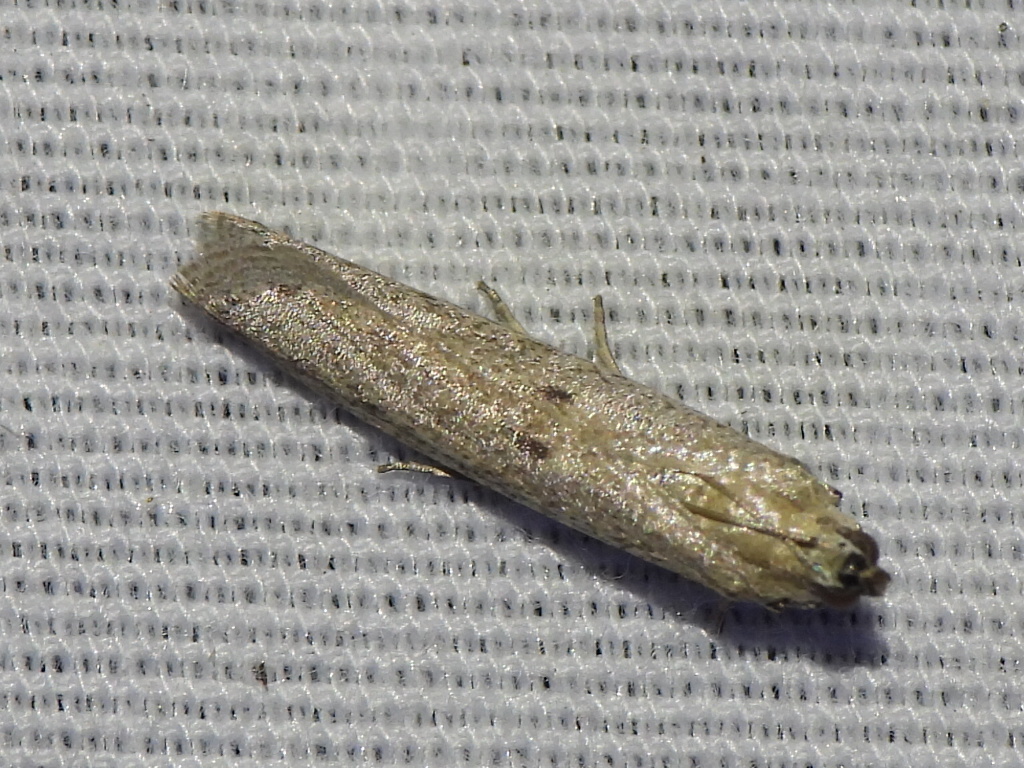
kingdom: Animalia
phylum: Arthropoda
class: Insecta
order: Lepidoptera
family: Pyralidae
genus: Homoeosoma
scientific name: Homoeosoma electella
